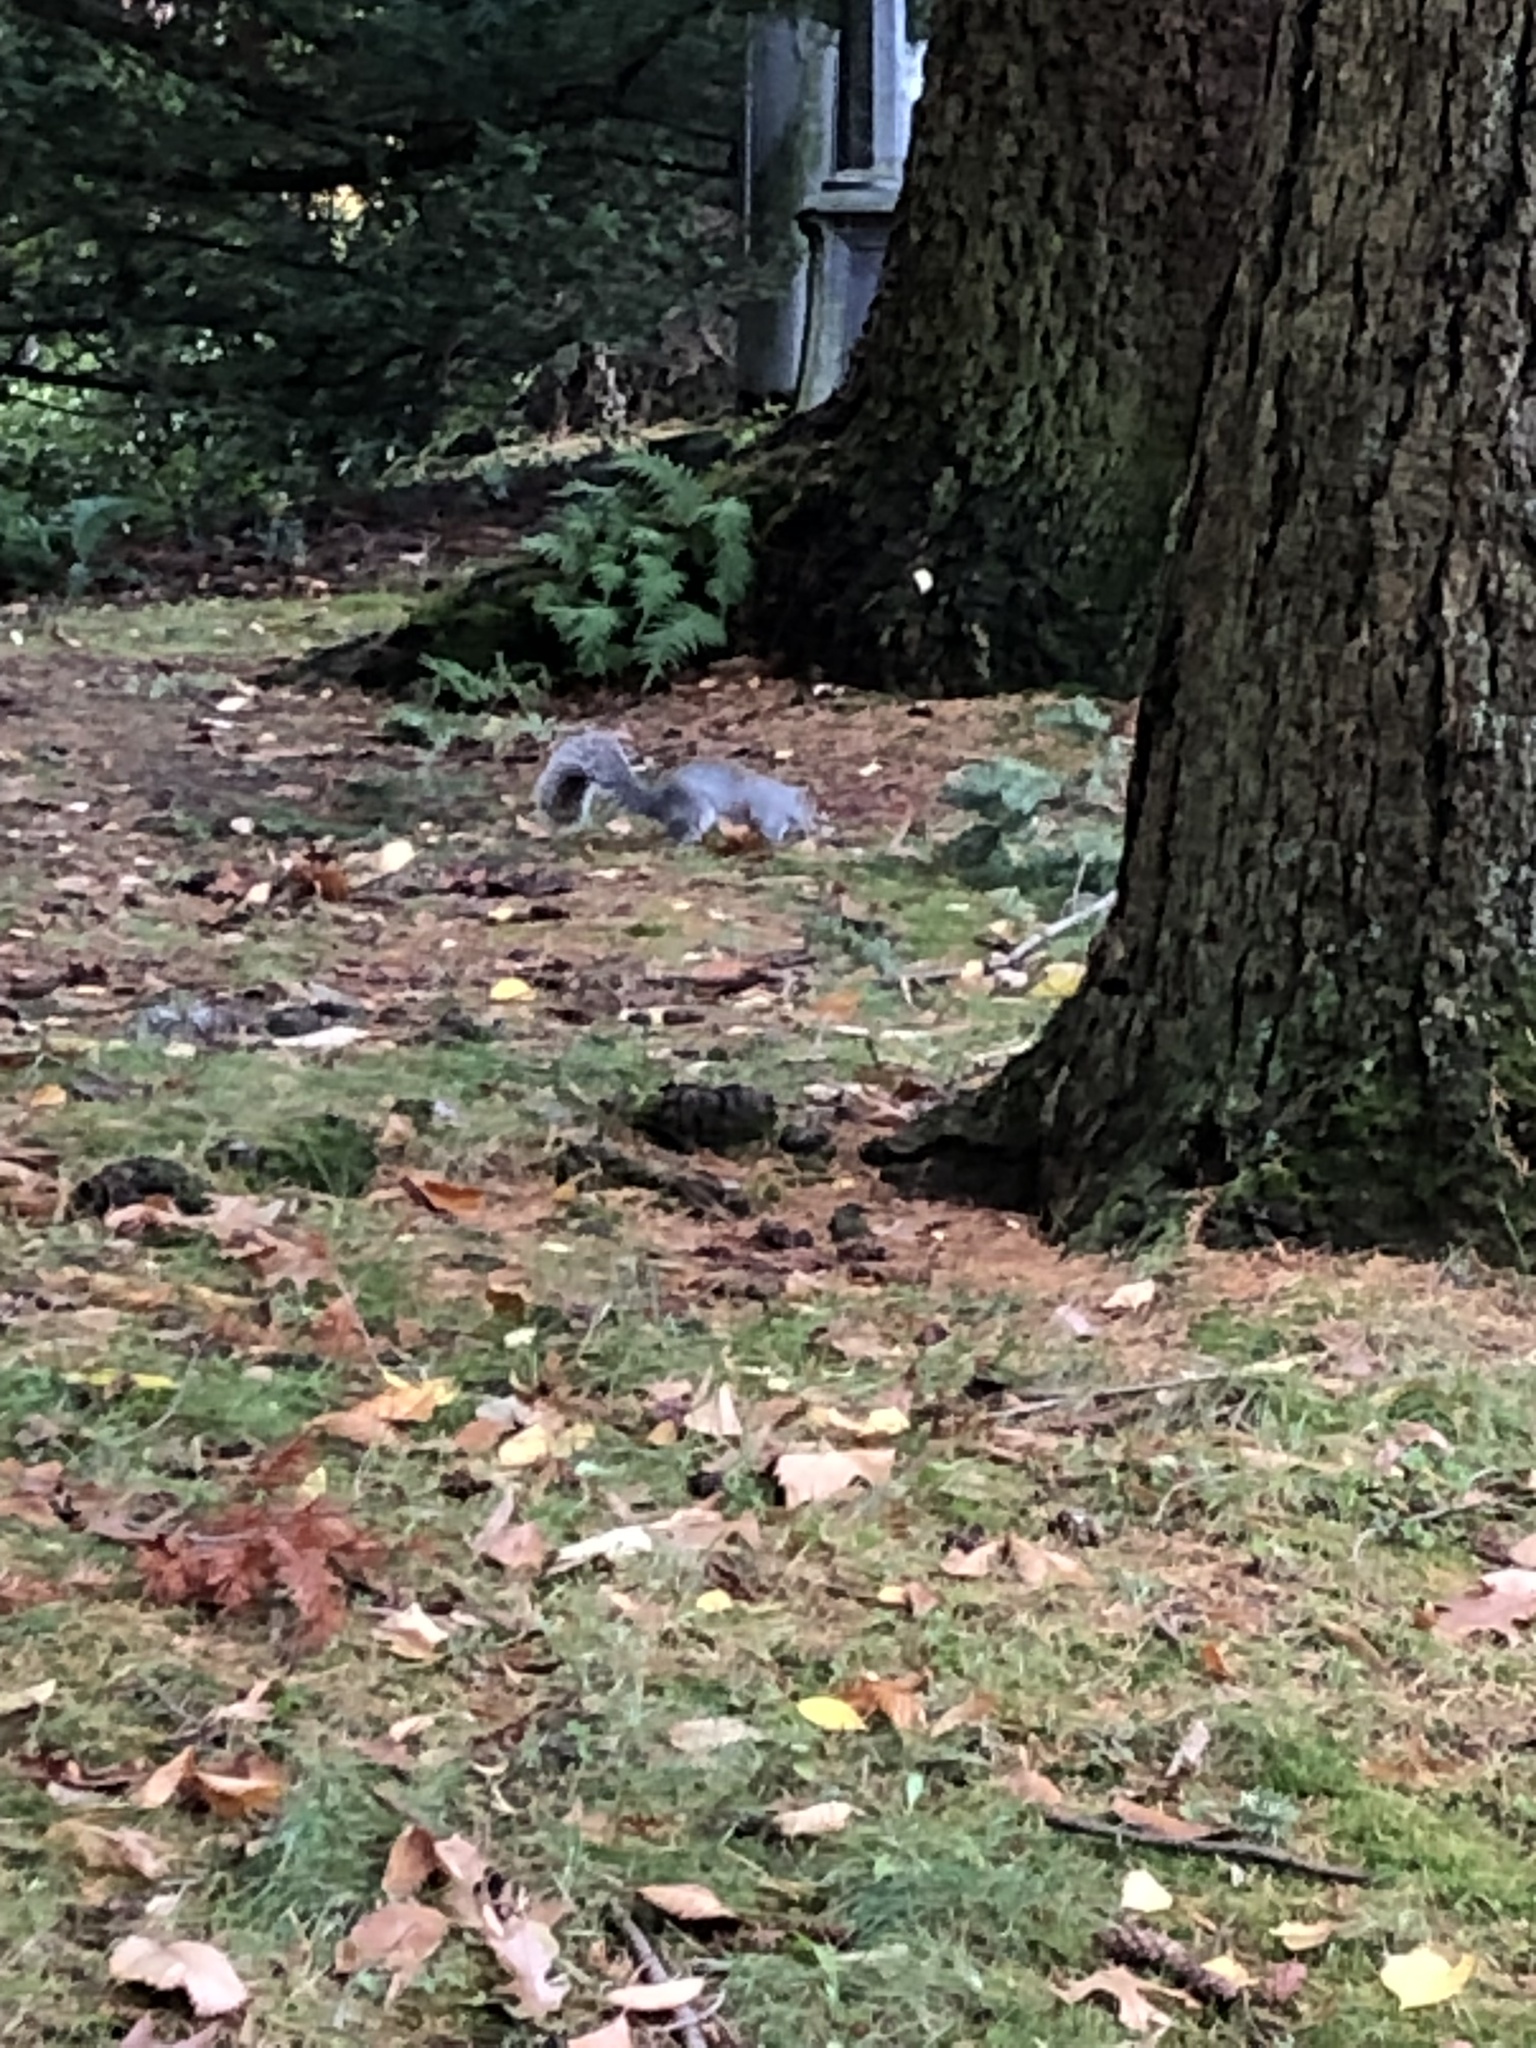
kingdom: Animalia
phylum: Chordata
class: Mammalia
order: Rodentia
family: Sciuridae
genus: Sciurus
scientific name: Sciurus carolinensis
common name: Eastern gray squirrel
